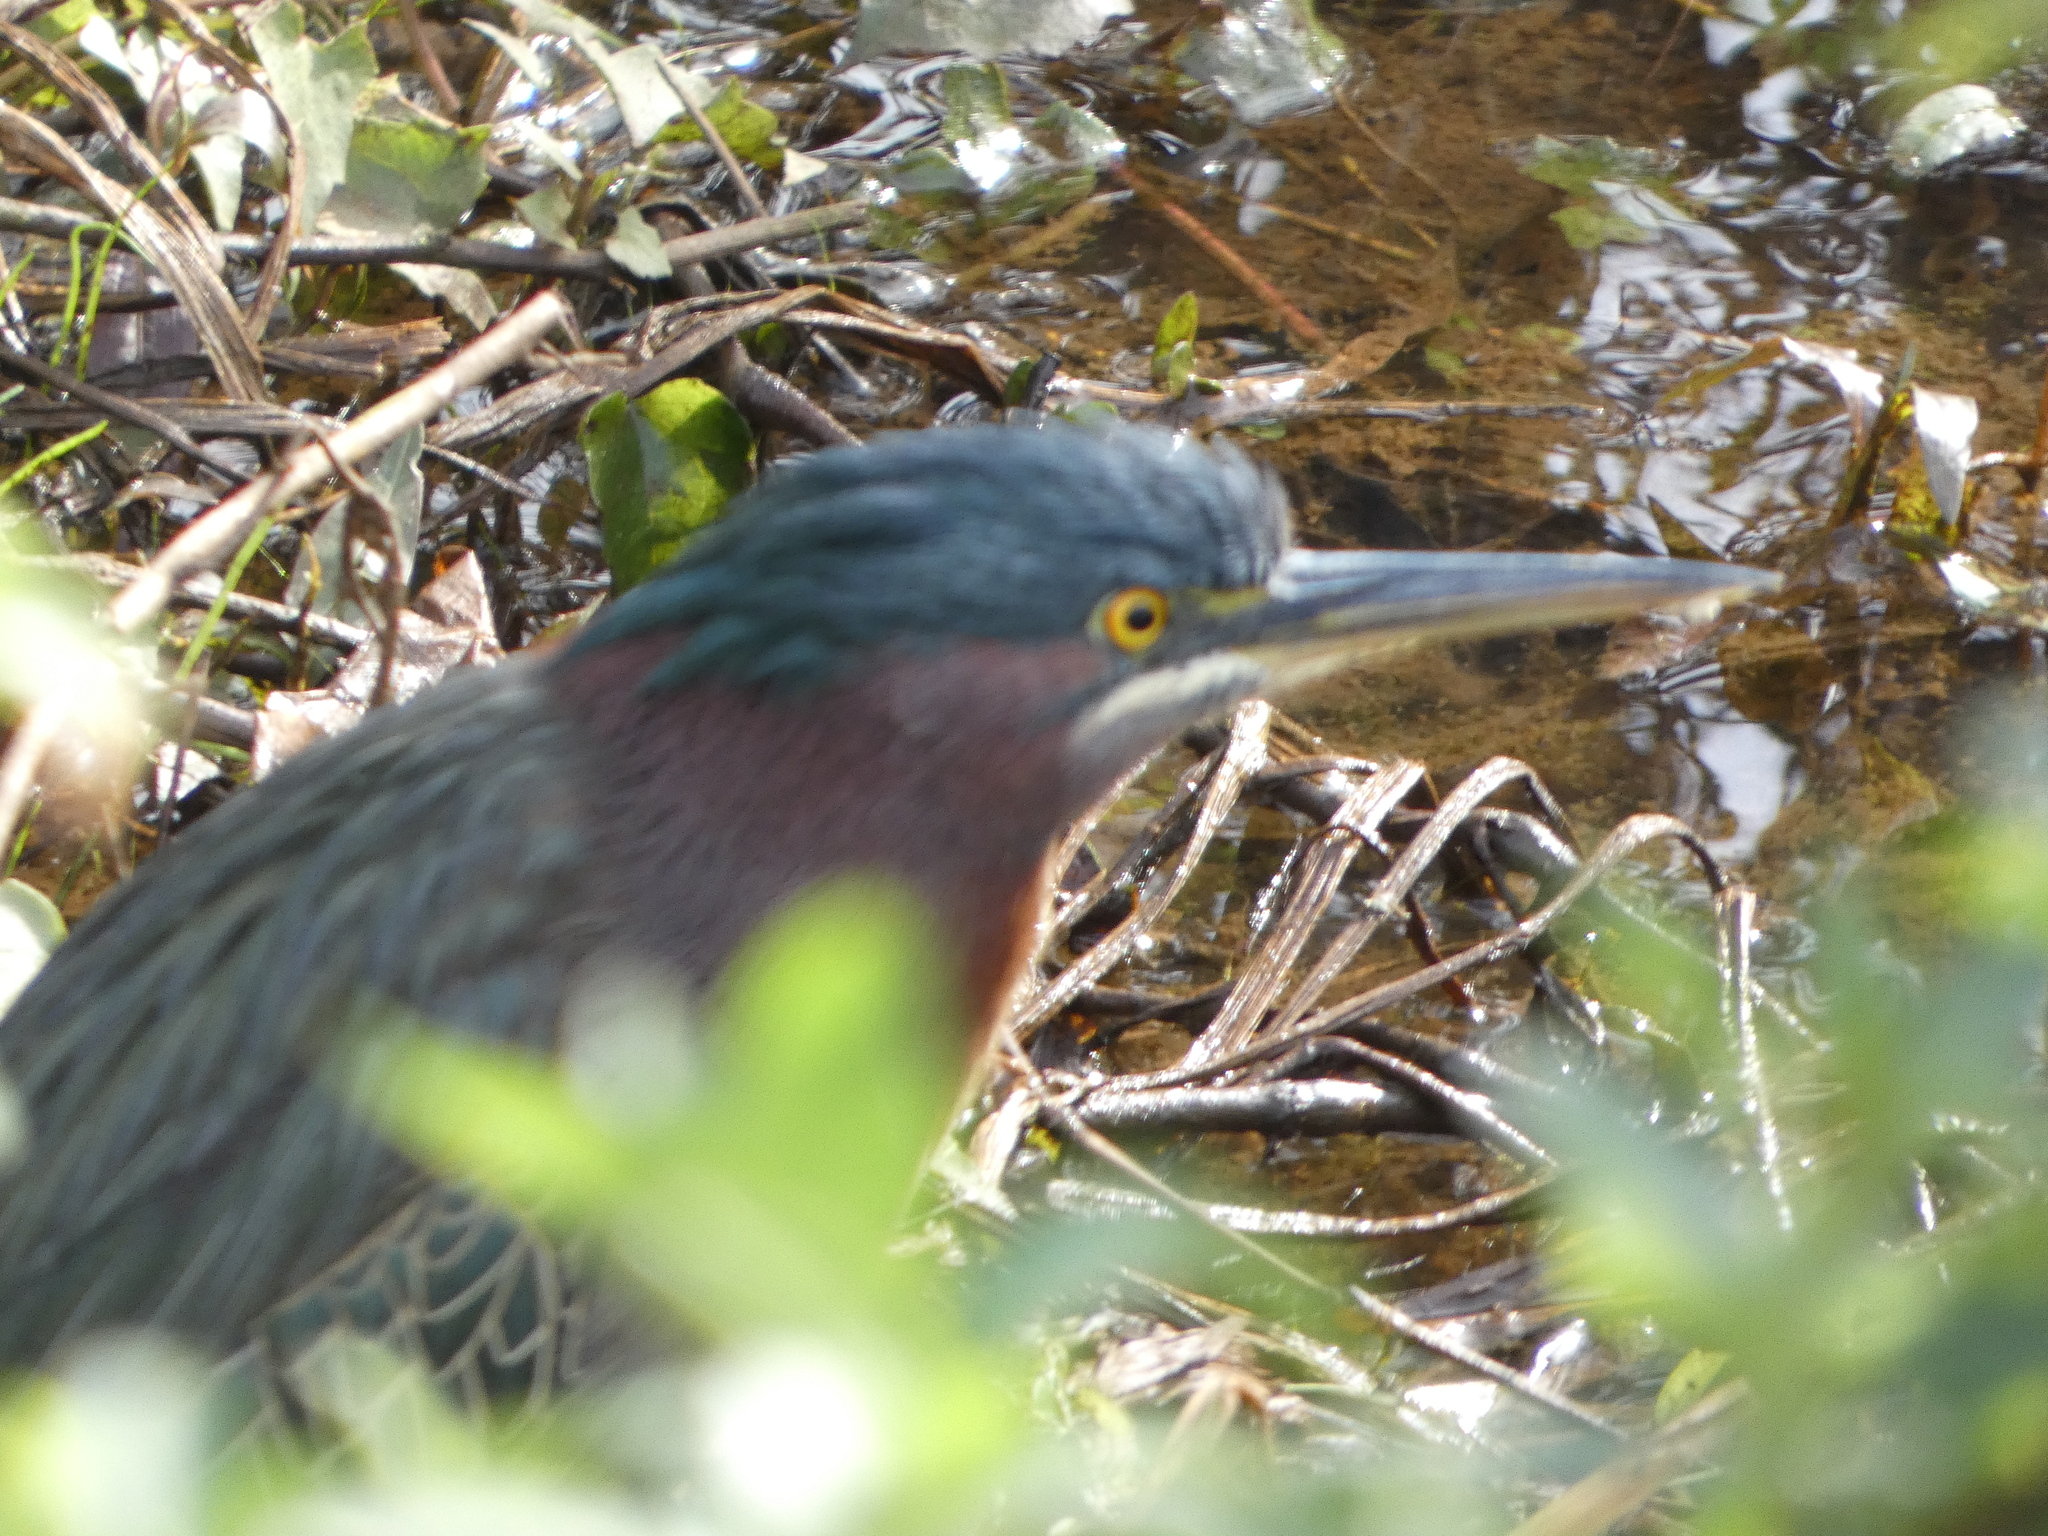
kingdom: Animalia
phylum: Chordata
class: Aves
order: Pelecaniformes
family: Ardeidae
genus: Butorides
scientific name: Butorides virescens
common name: Green heron
